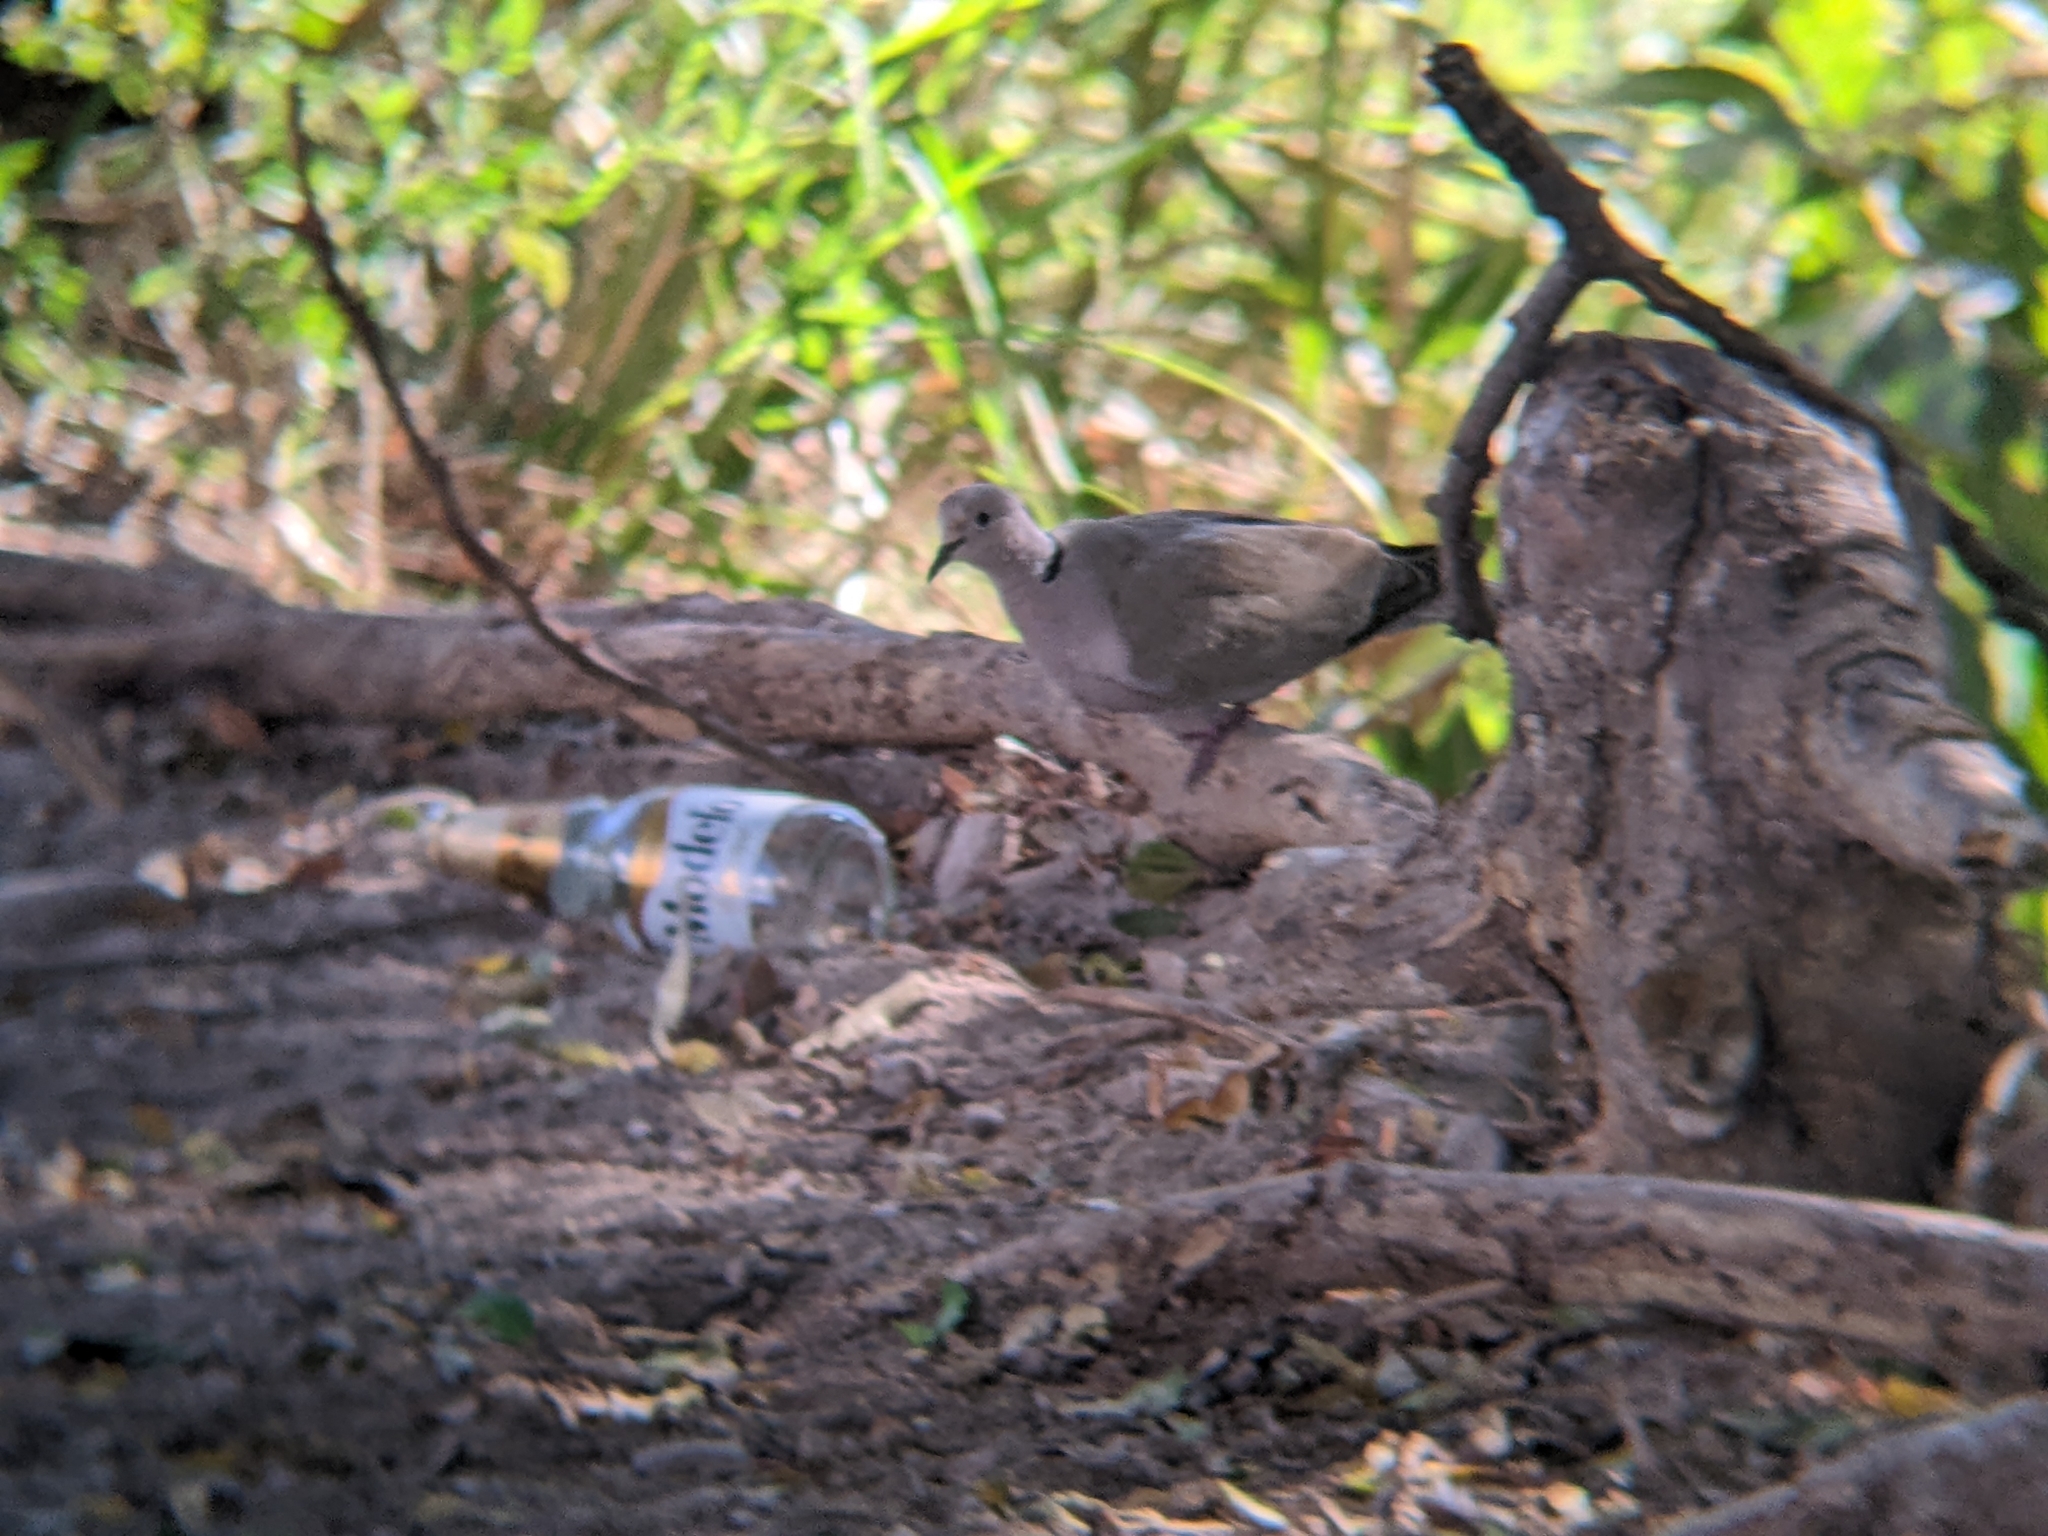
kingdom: Animalia
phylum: Chordata
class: Aves
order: Columbiformes
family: Columbidae
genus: Streptopelia
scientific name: Streptopelia decaocto
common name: Eurasian collared dove
